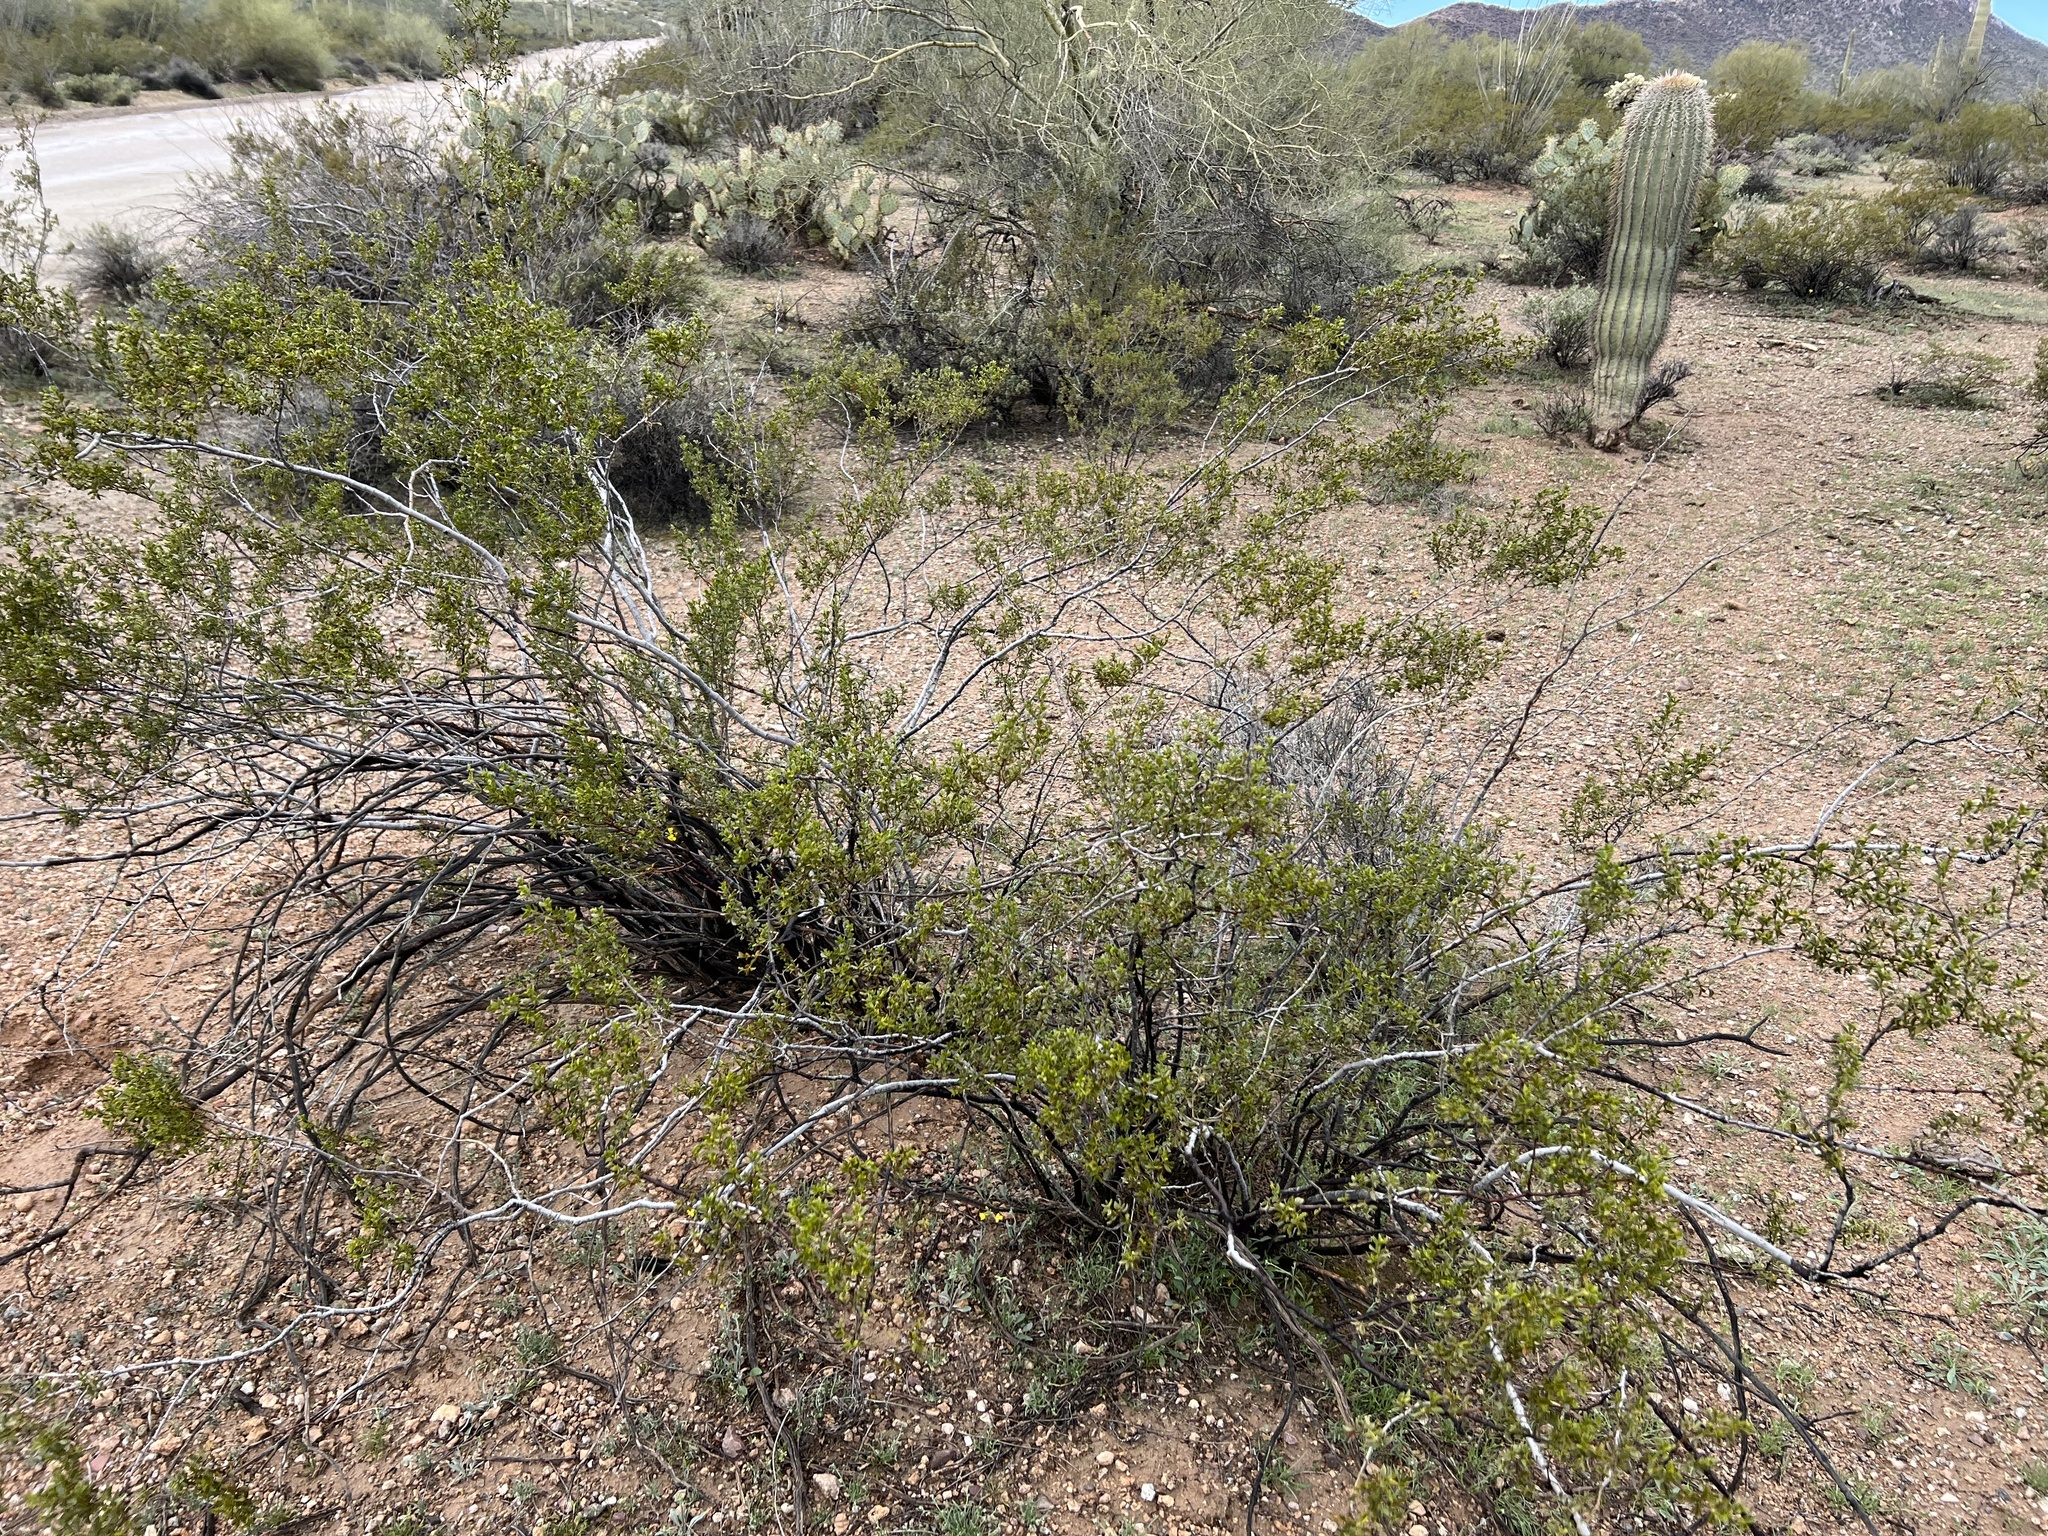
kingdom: Plantae
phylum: Tracheophyta
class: Magnoliopsida
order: Zygophyllales
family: Zygophyllaceae
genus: Larrea
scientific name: Larrea tridentata
